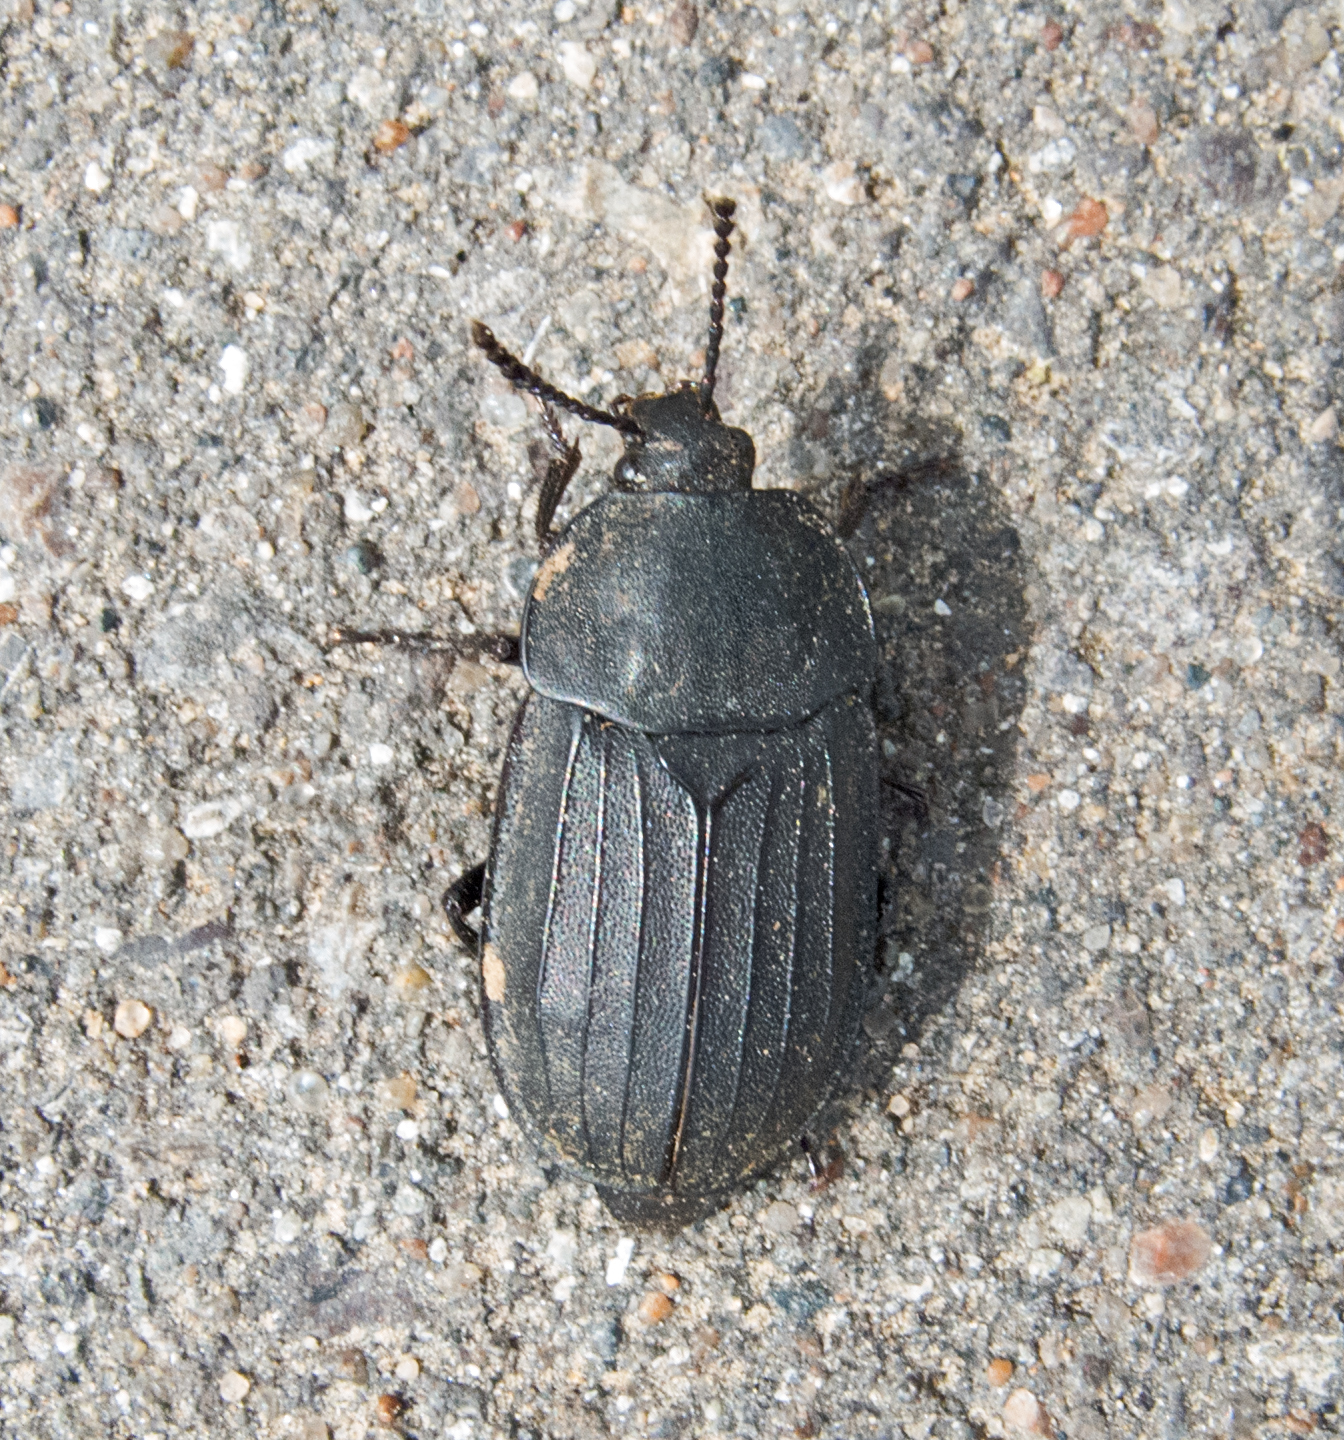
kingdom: Animalia
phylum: Arthropoda
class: Insecta
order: Coleoptera
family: Staphylinidae
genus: Silpha
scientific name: Silpha tristis
